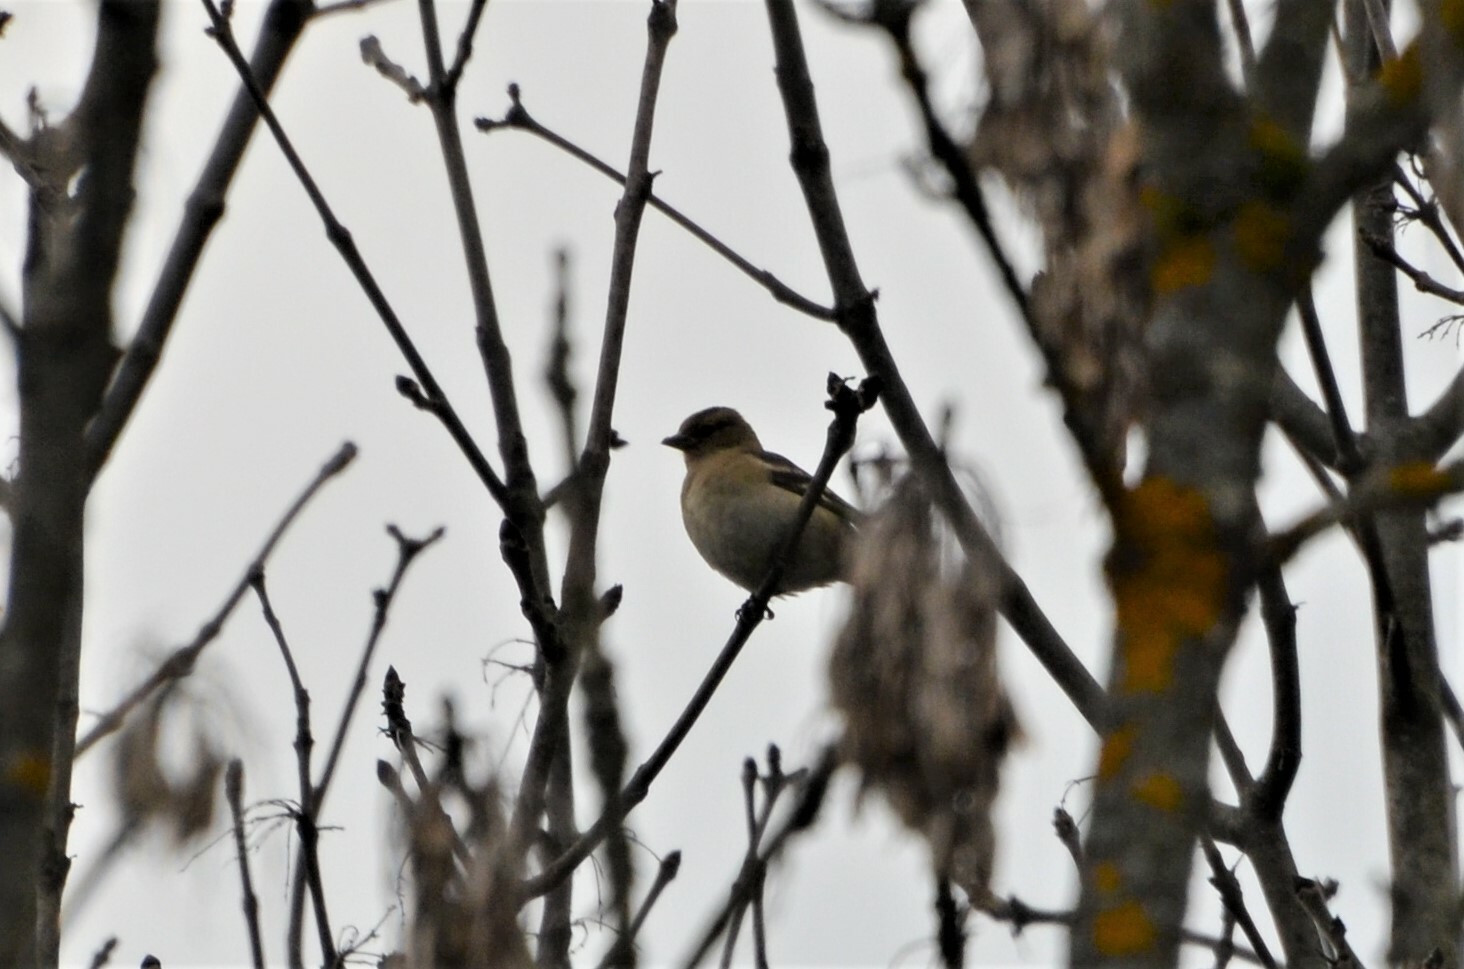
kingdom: Animalia
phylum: Chordata
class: Aves
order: Passeriformes
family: Fringillidae
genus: Fringilla
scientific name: Fringilla coelebs
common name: Common chaffinch
